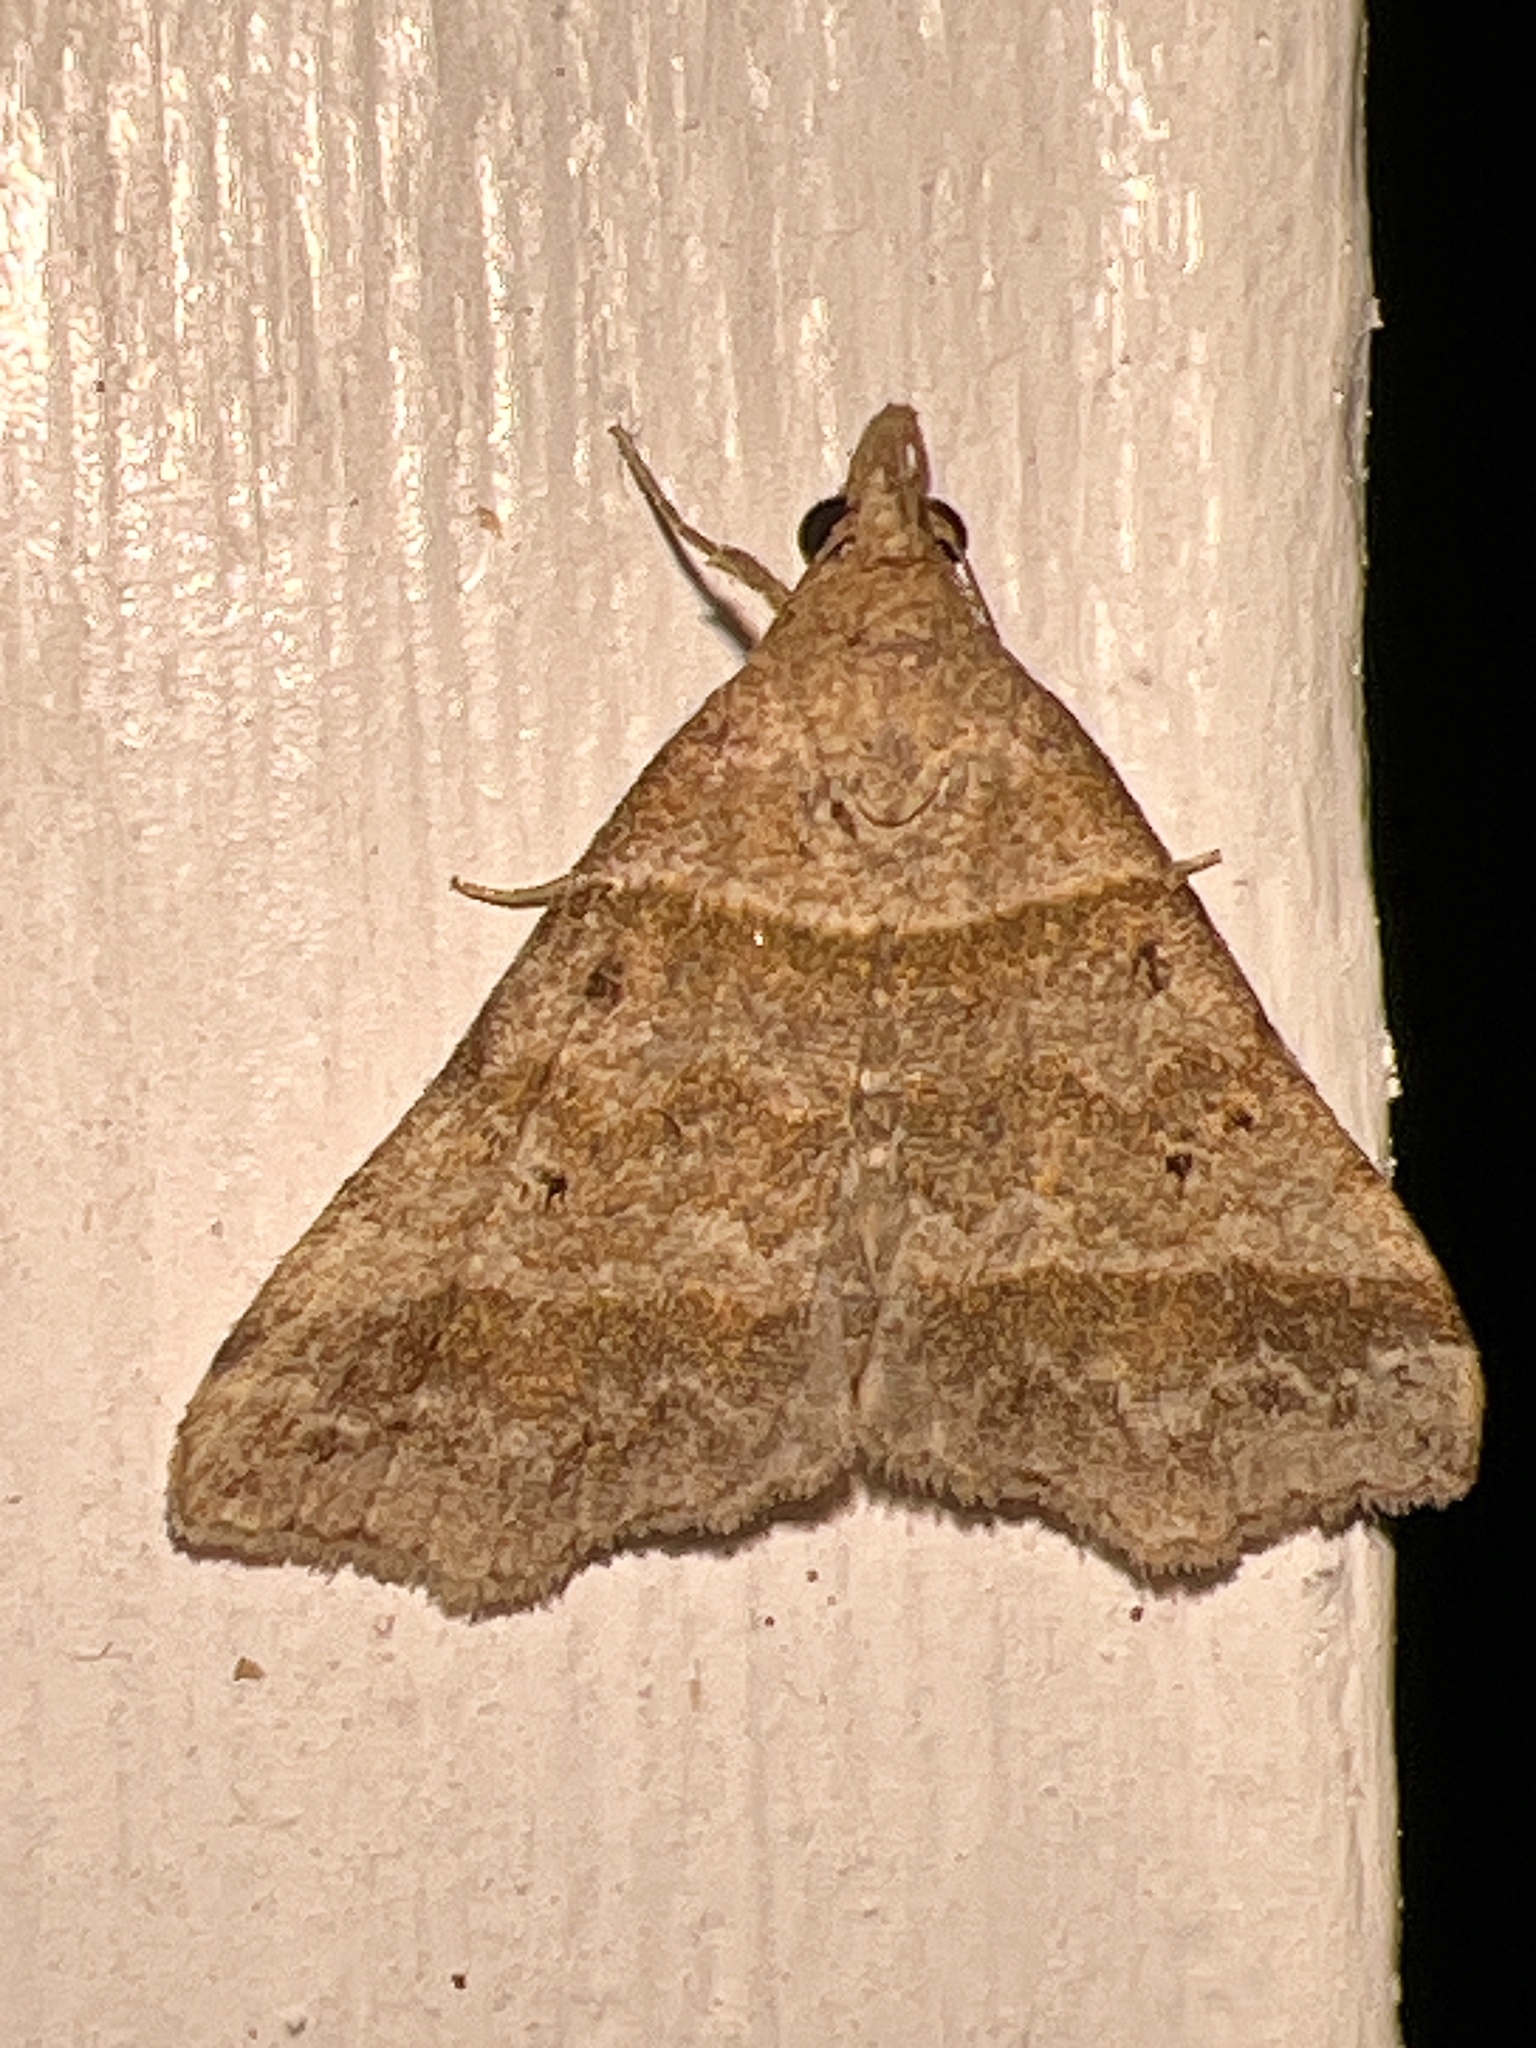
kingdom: Animalia
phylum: Arthropoda
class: Insecta
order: Lepidoptera
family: Erebidae
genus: Phaeolita
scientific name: Phaeolita pyramusalis
